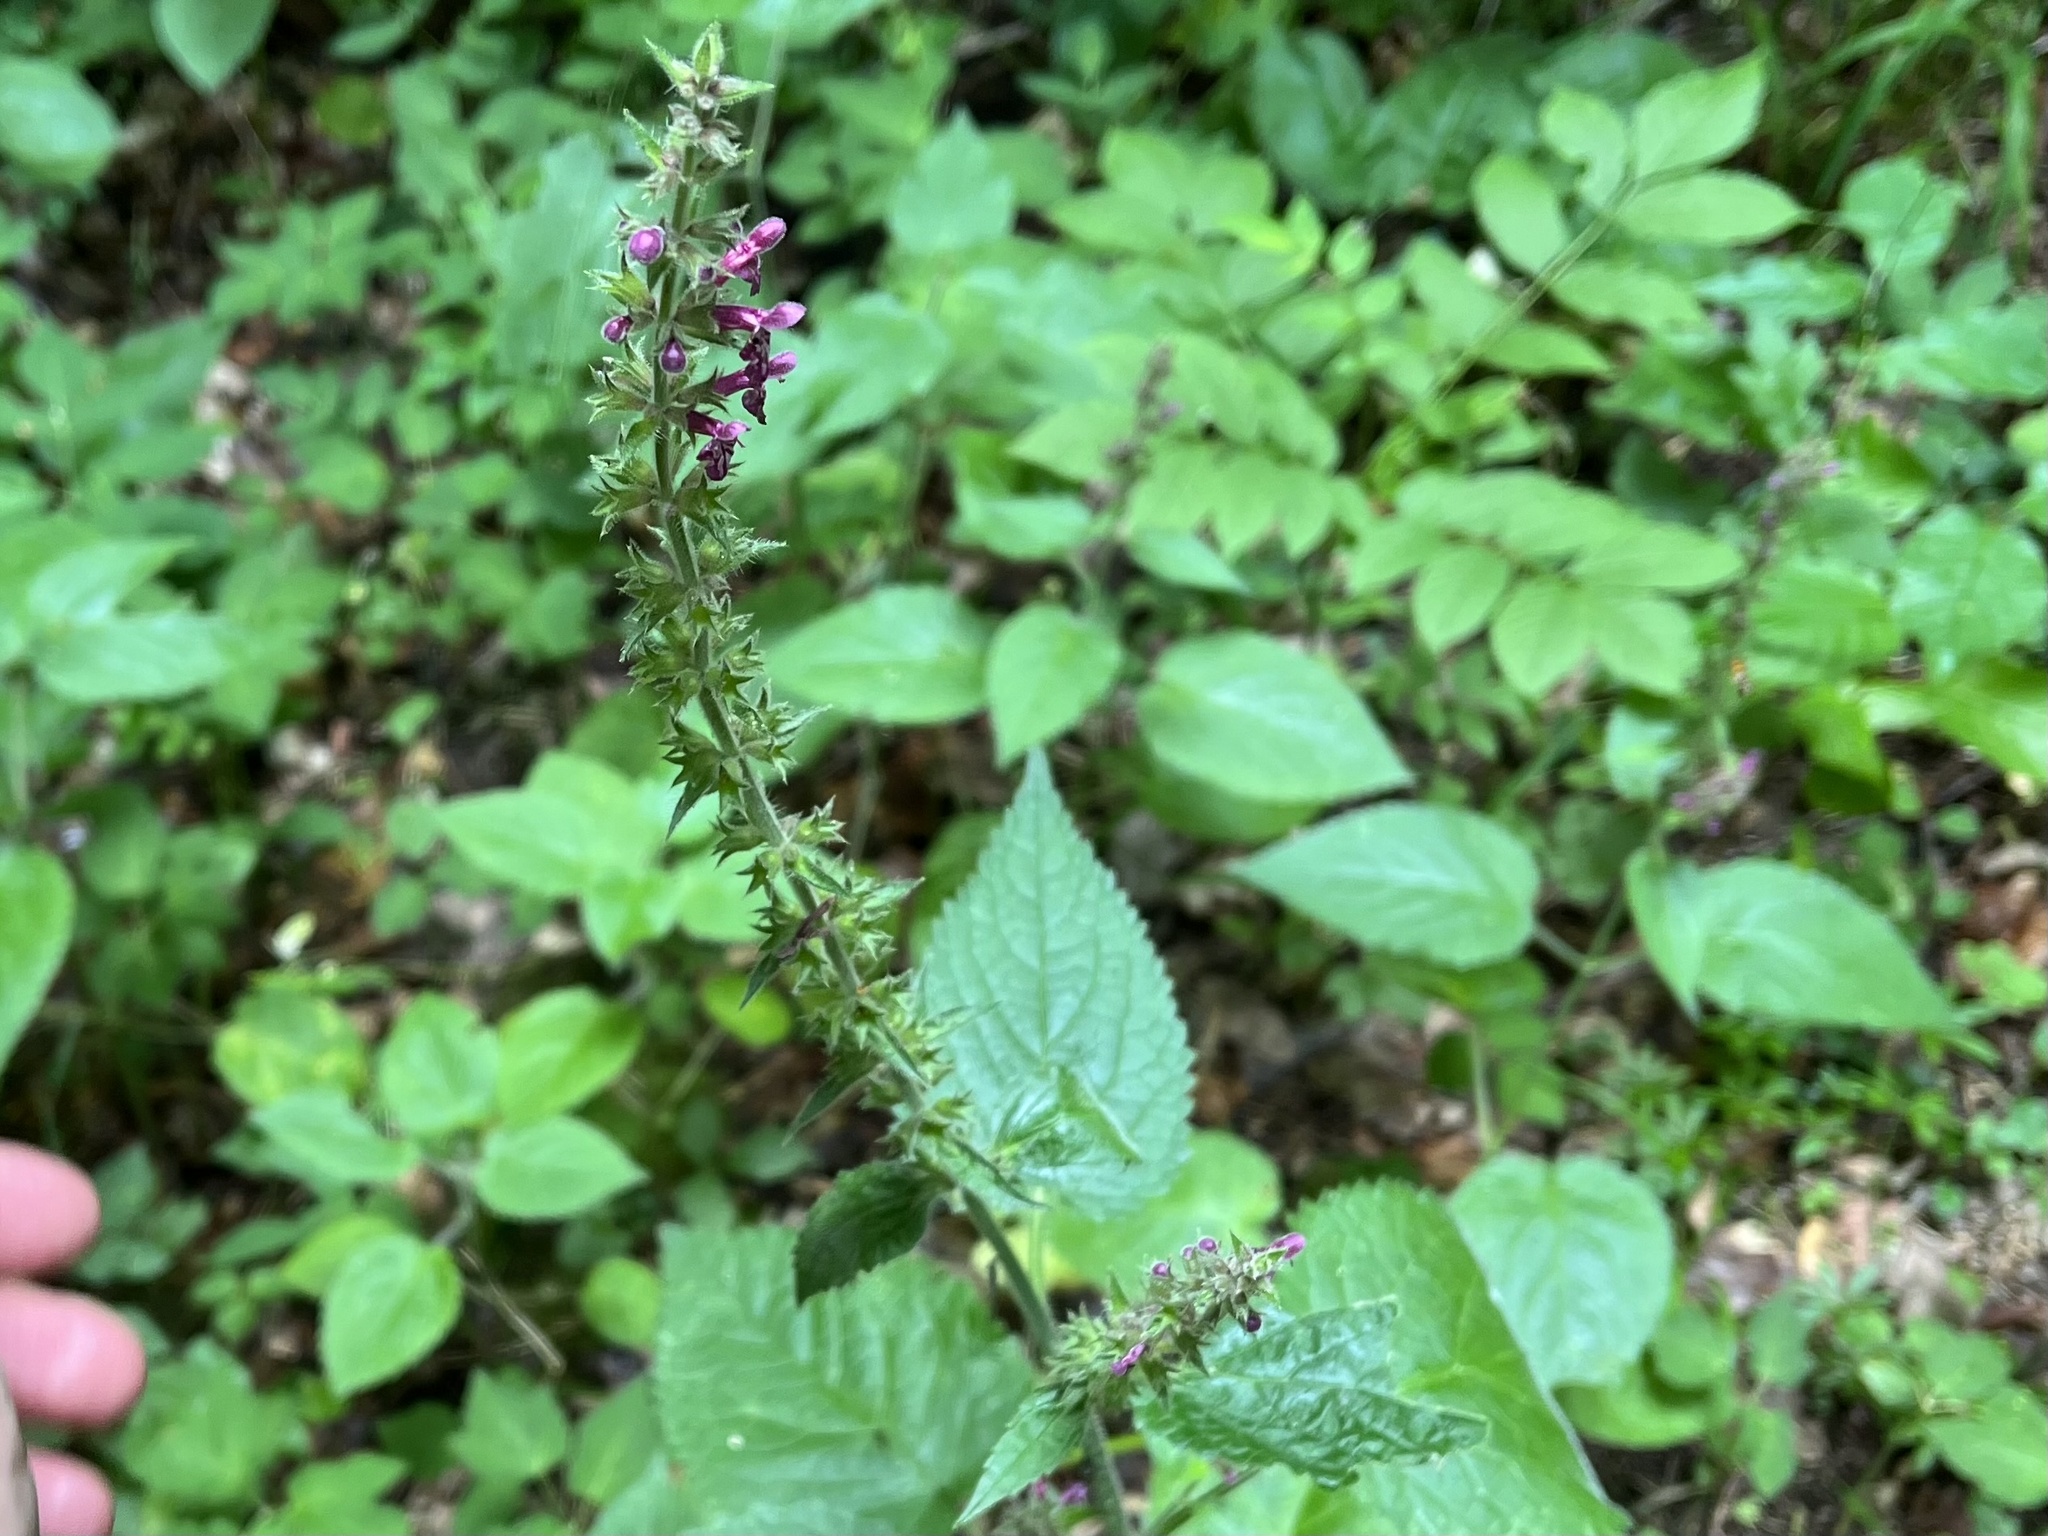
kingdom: Plantae
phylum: Tracheophyta
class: Magnoliopsida
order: Lamiales
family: Lamiaceae
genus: Stachys
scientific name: Stachys sylvatica
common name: Hedge woundwort
